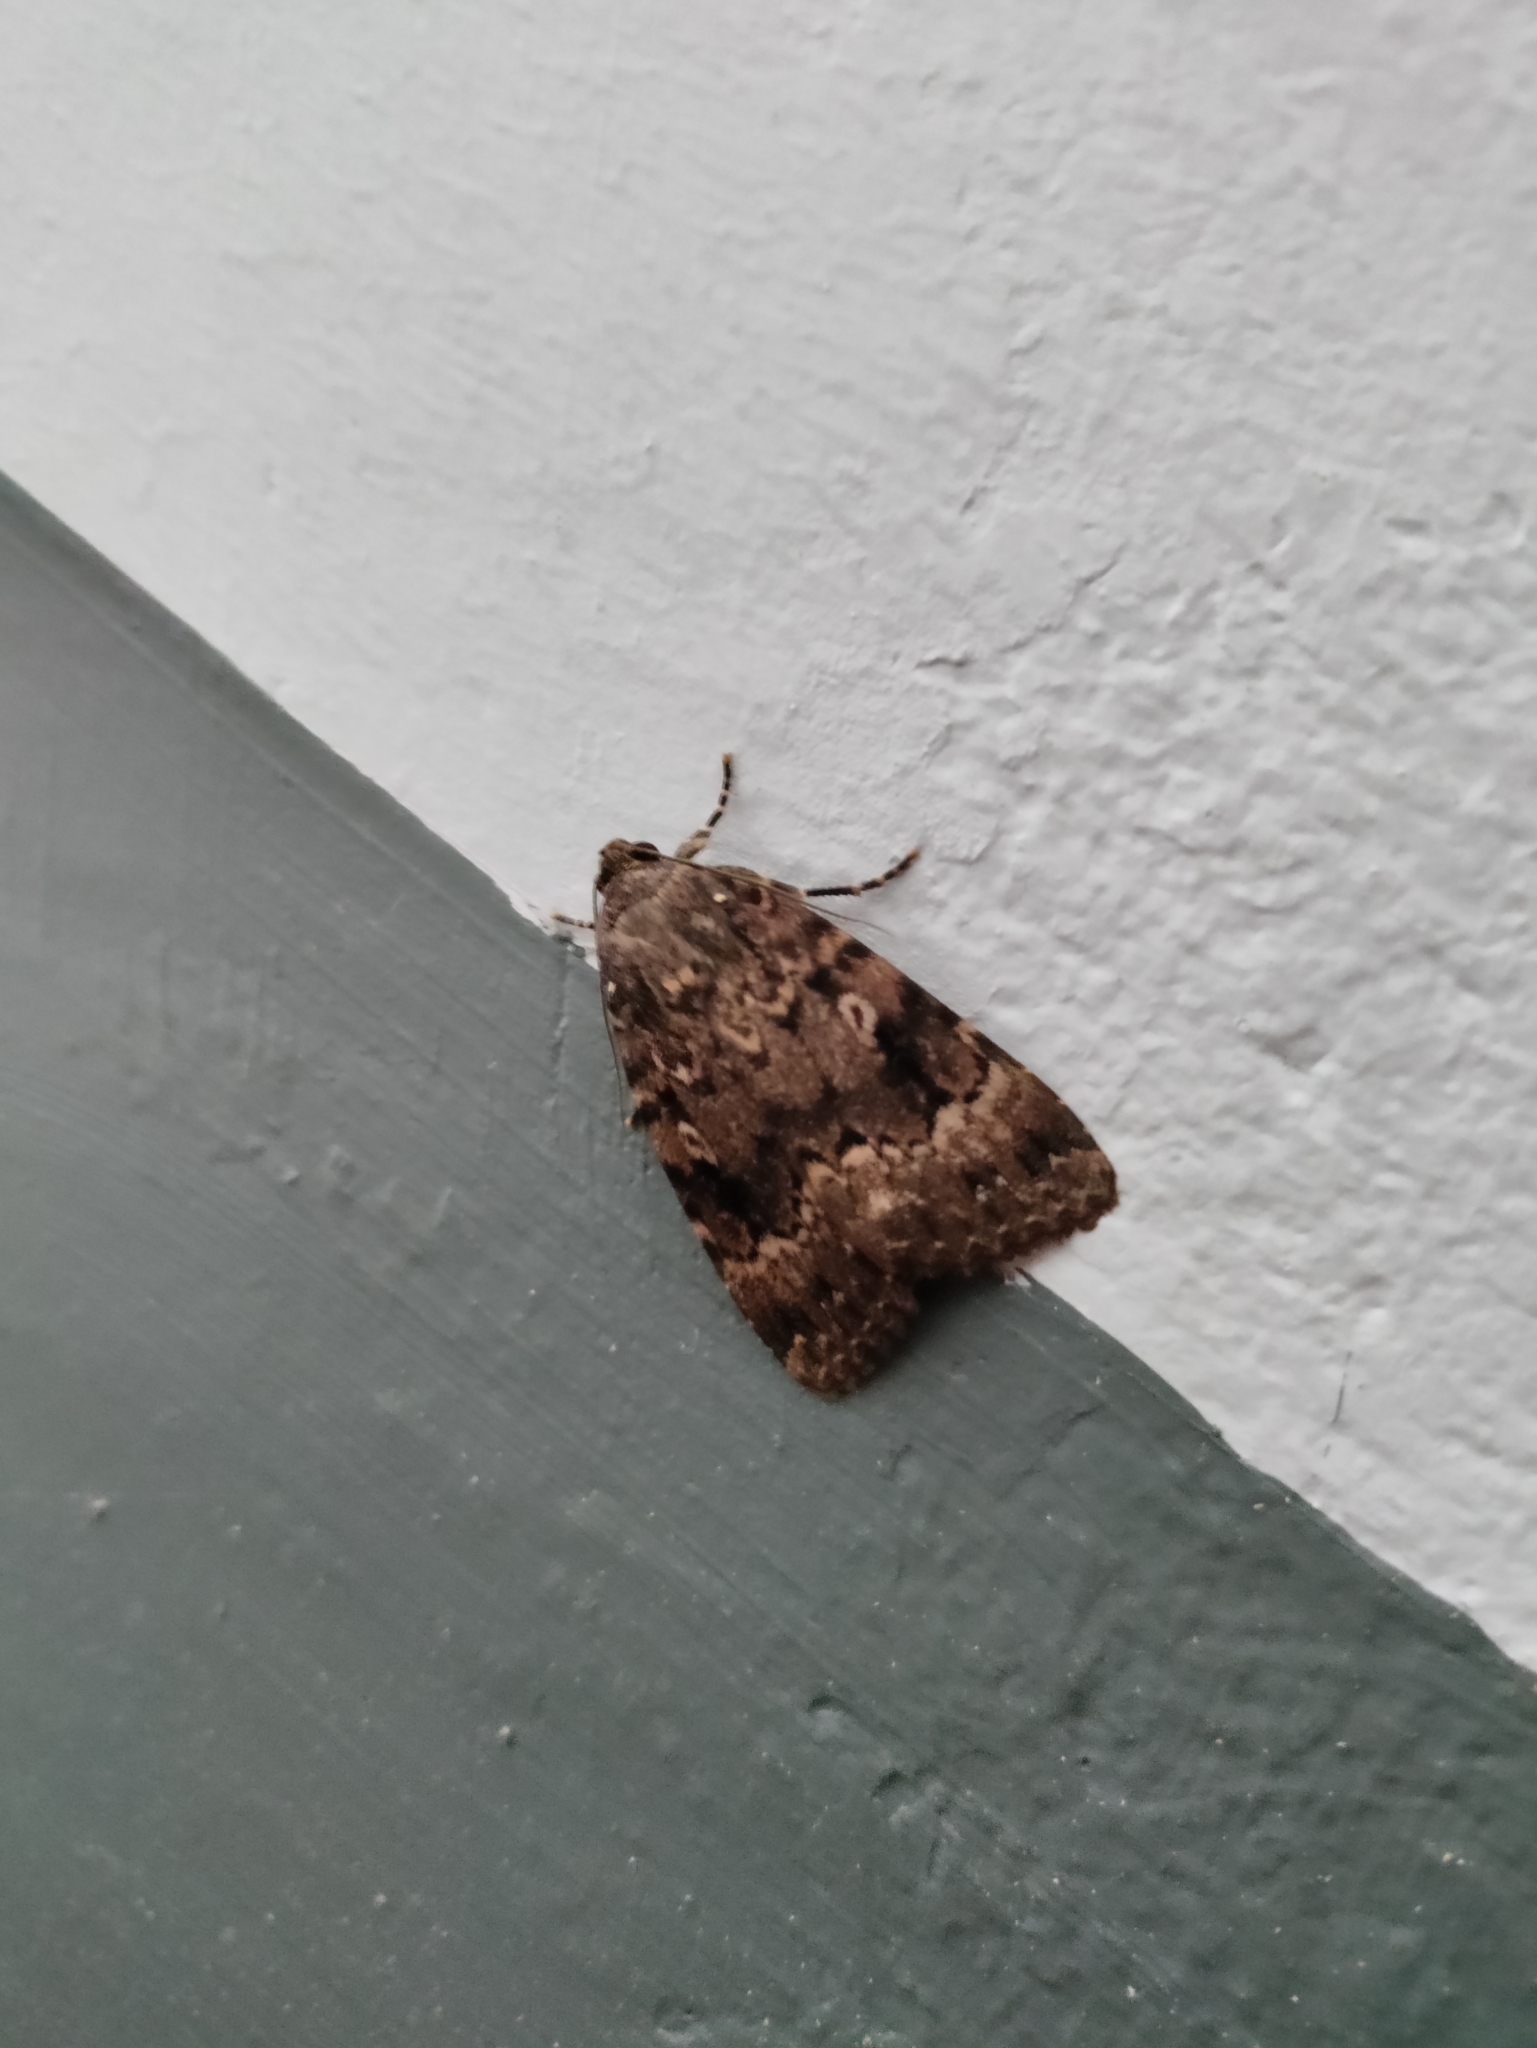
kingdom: Animalia
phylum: Arthropoda
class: Insecta
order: Lepidoptera
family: Noctuidae
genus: Amphipyra
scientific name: Amphipyra berbera
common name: Svensson's copper underwing
